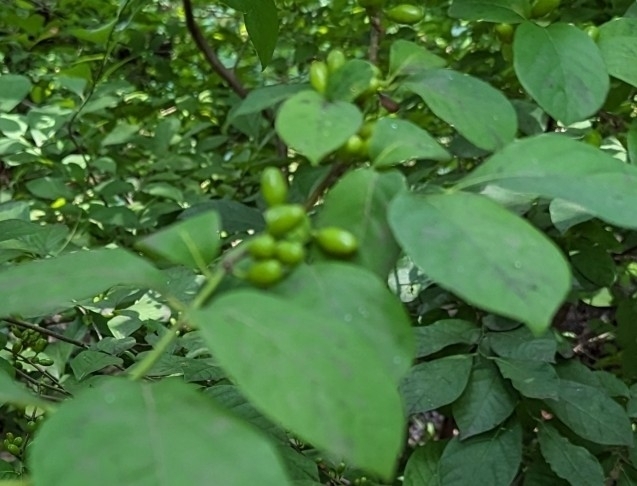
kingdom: Plantae
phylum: Tracheophyta
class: Magnoliopsida
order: Laurales
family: Lauraceae
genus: Lindera
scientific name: Lindera benzoin
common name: Spicebush
